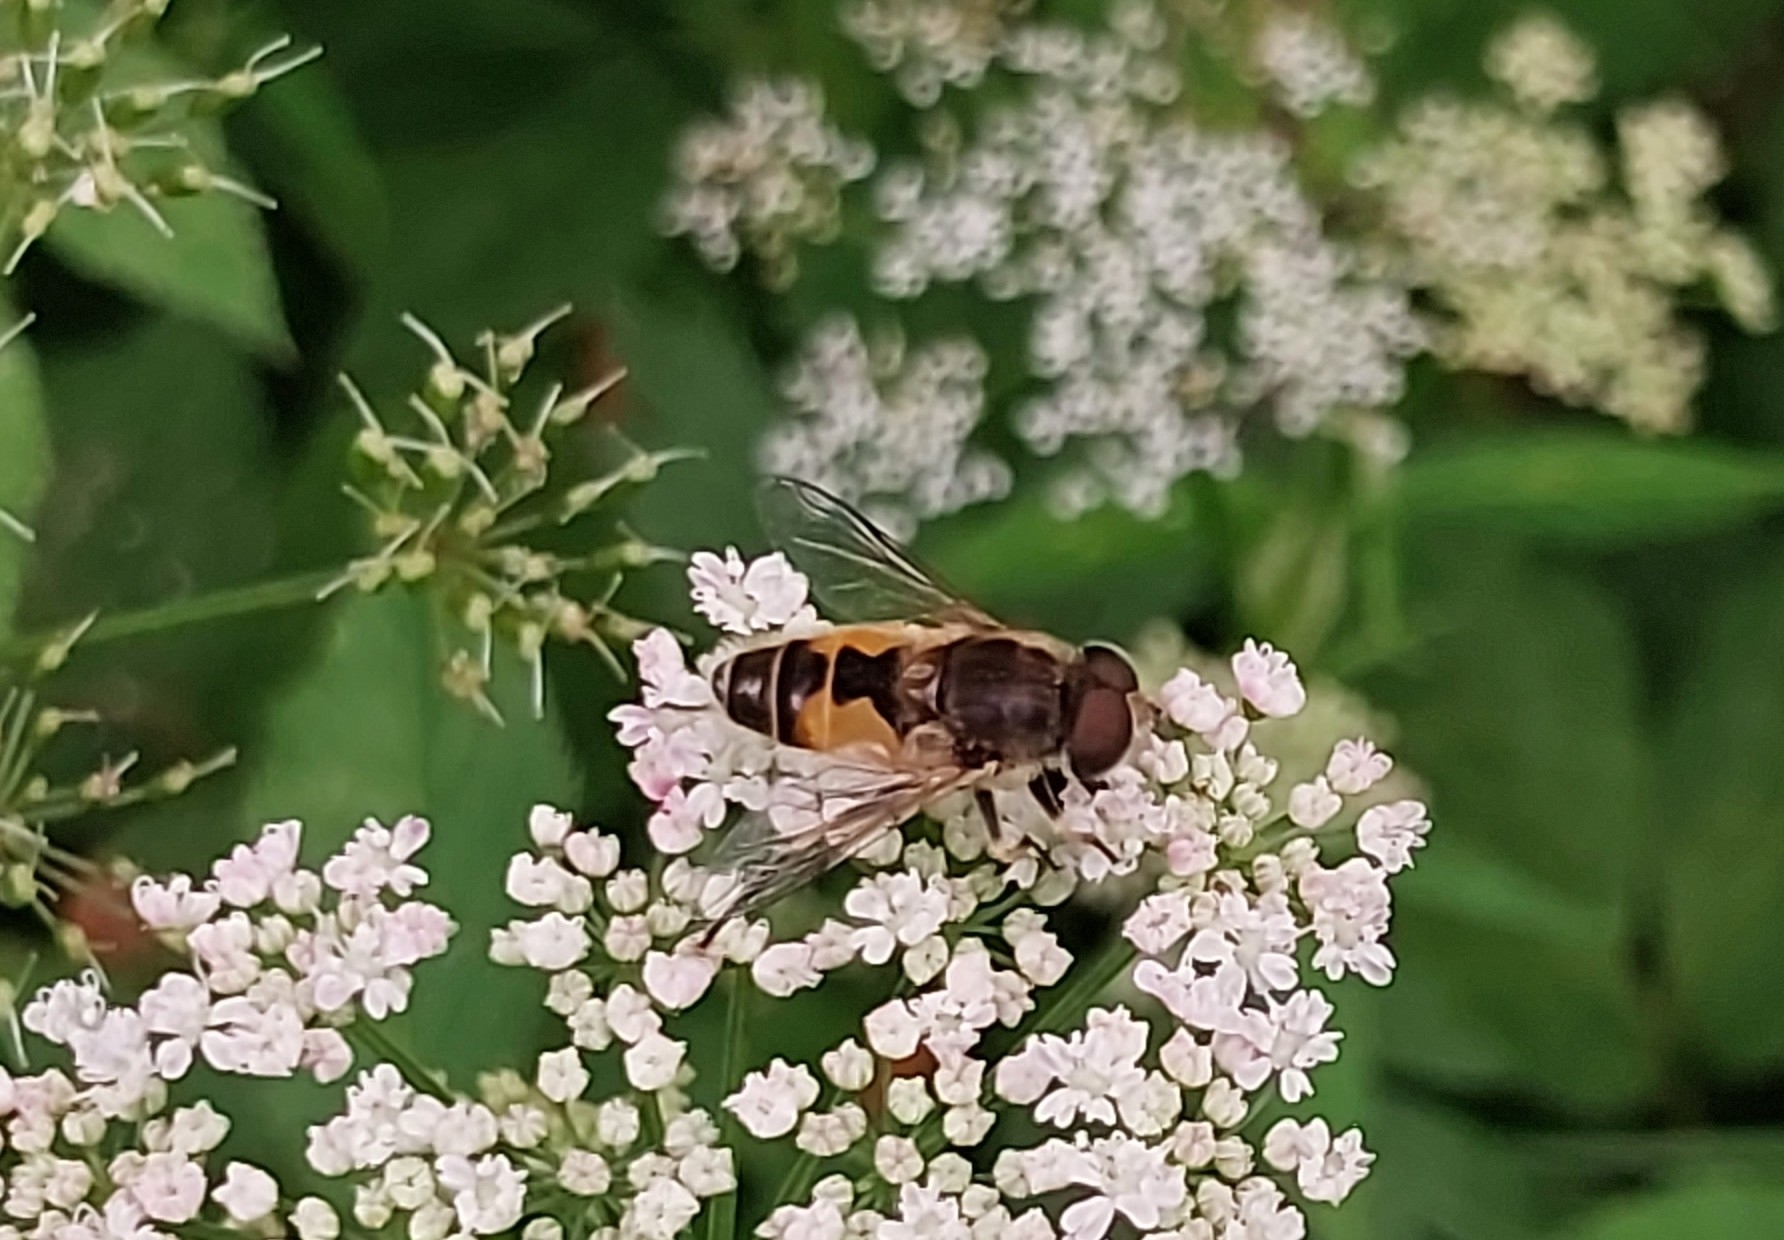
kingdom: Animalia
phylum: Arthropoda
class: Insecta
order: Diptera
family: Syrphidae
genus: Eristalis
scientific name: Eristalis arbustorum
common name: Hover fly
